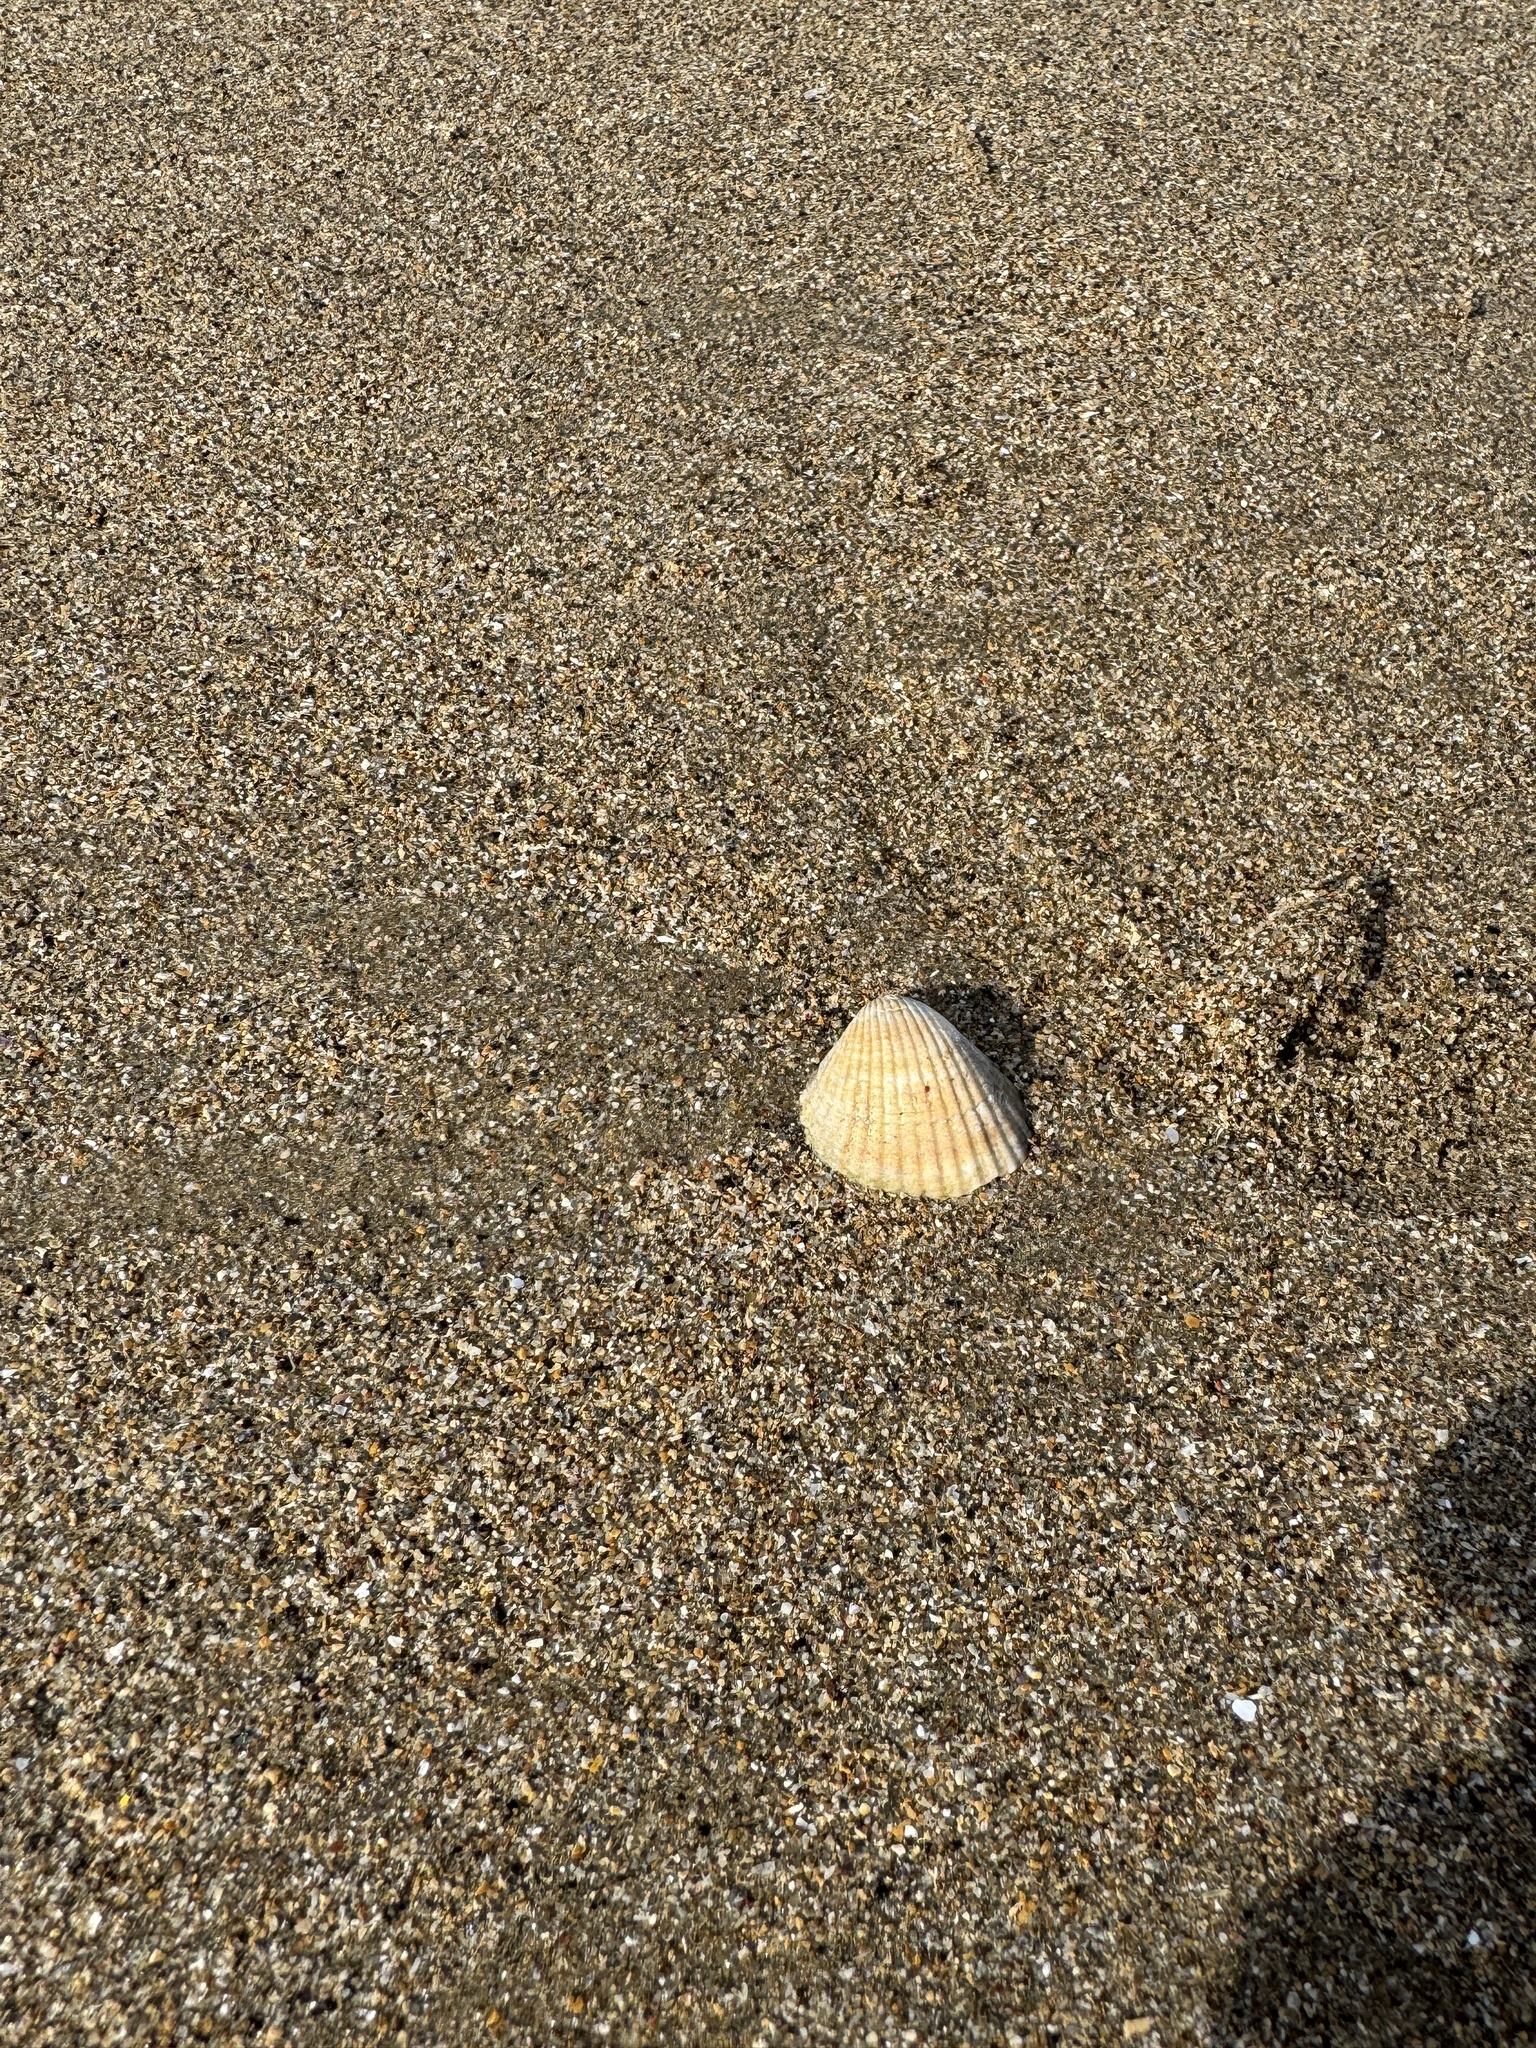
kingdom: Animalia
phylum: Mollusca
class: Bivalvia
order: Cardiida
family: Cardiidae
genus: Cerastoderma
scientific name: Cerastoderma edule
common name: Common cockle
